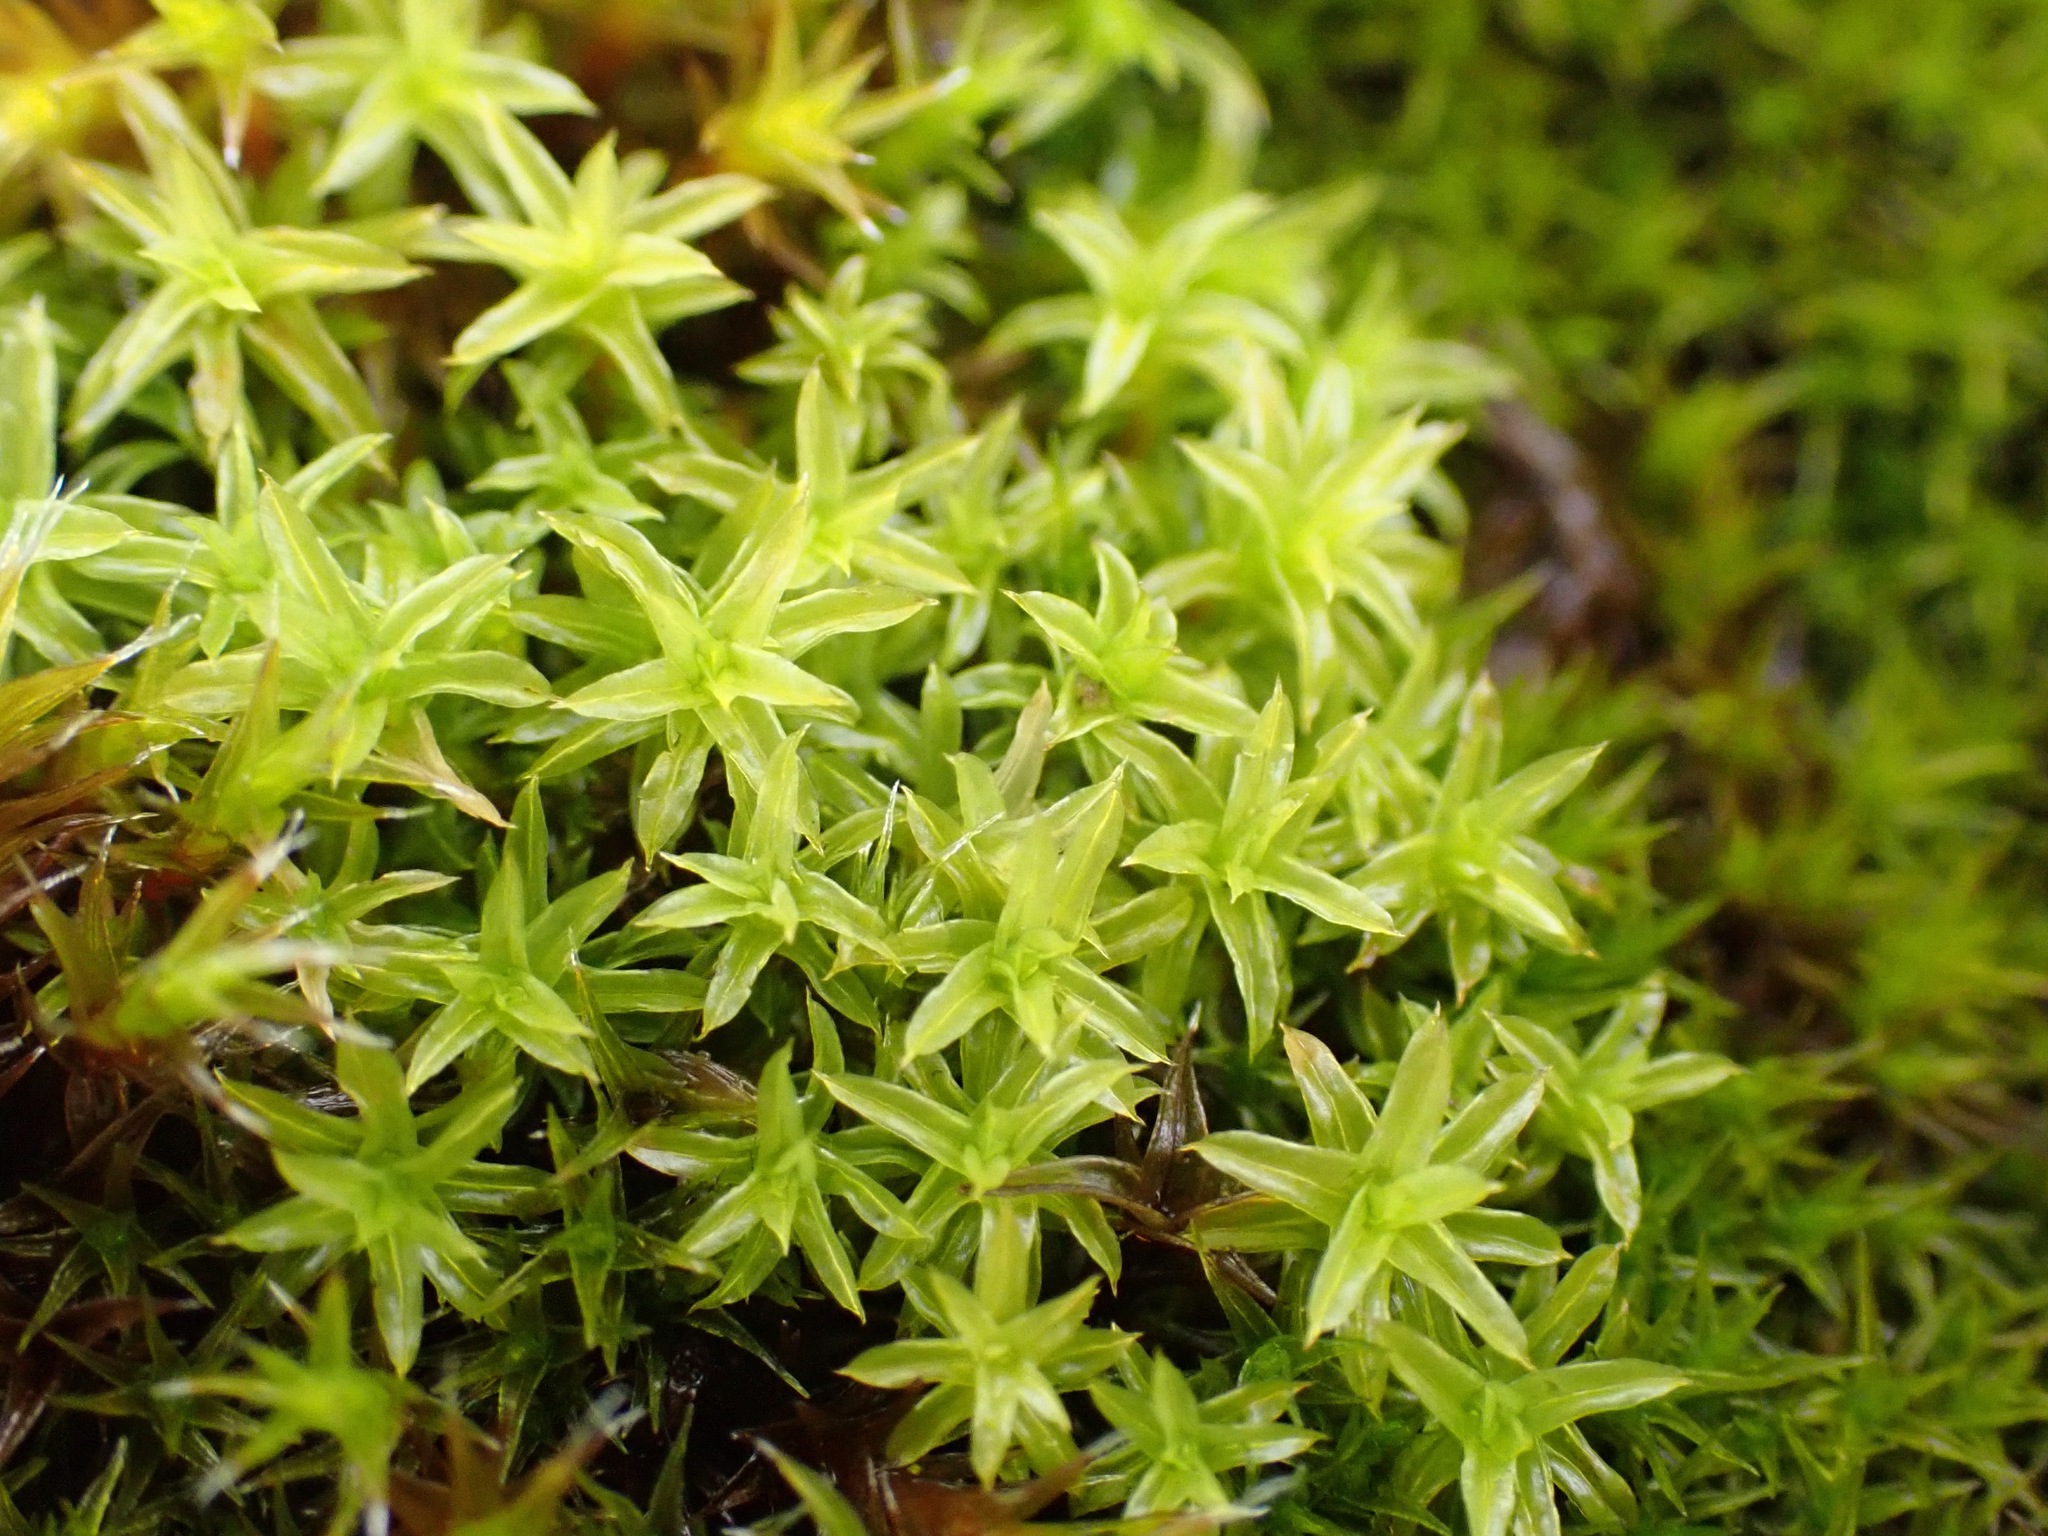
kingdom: Plantae
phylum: Bryophyta
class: Bryopsida
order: Pottiales
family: Pottiaceae
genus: Barbula
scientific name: Barbula unguiculata
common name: Prickly beard moss
